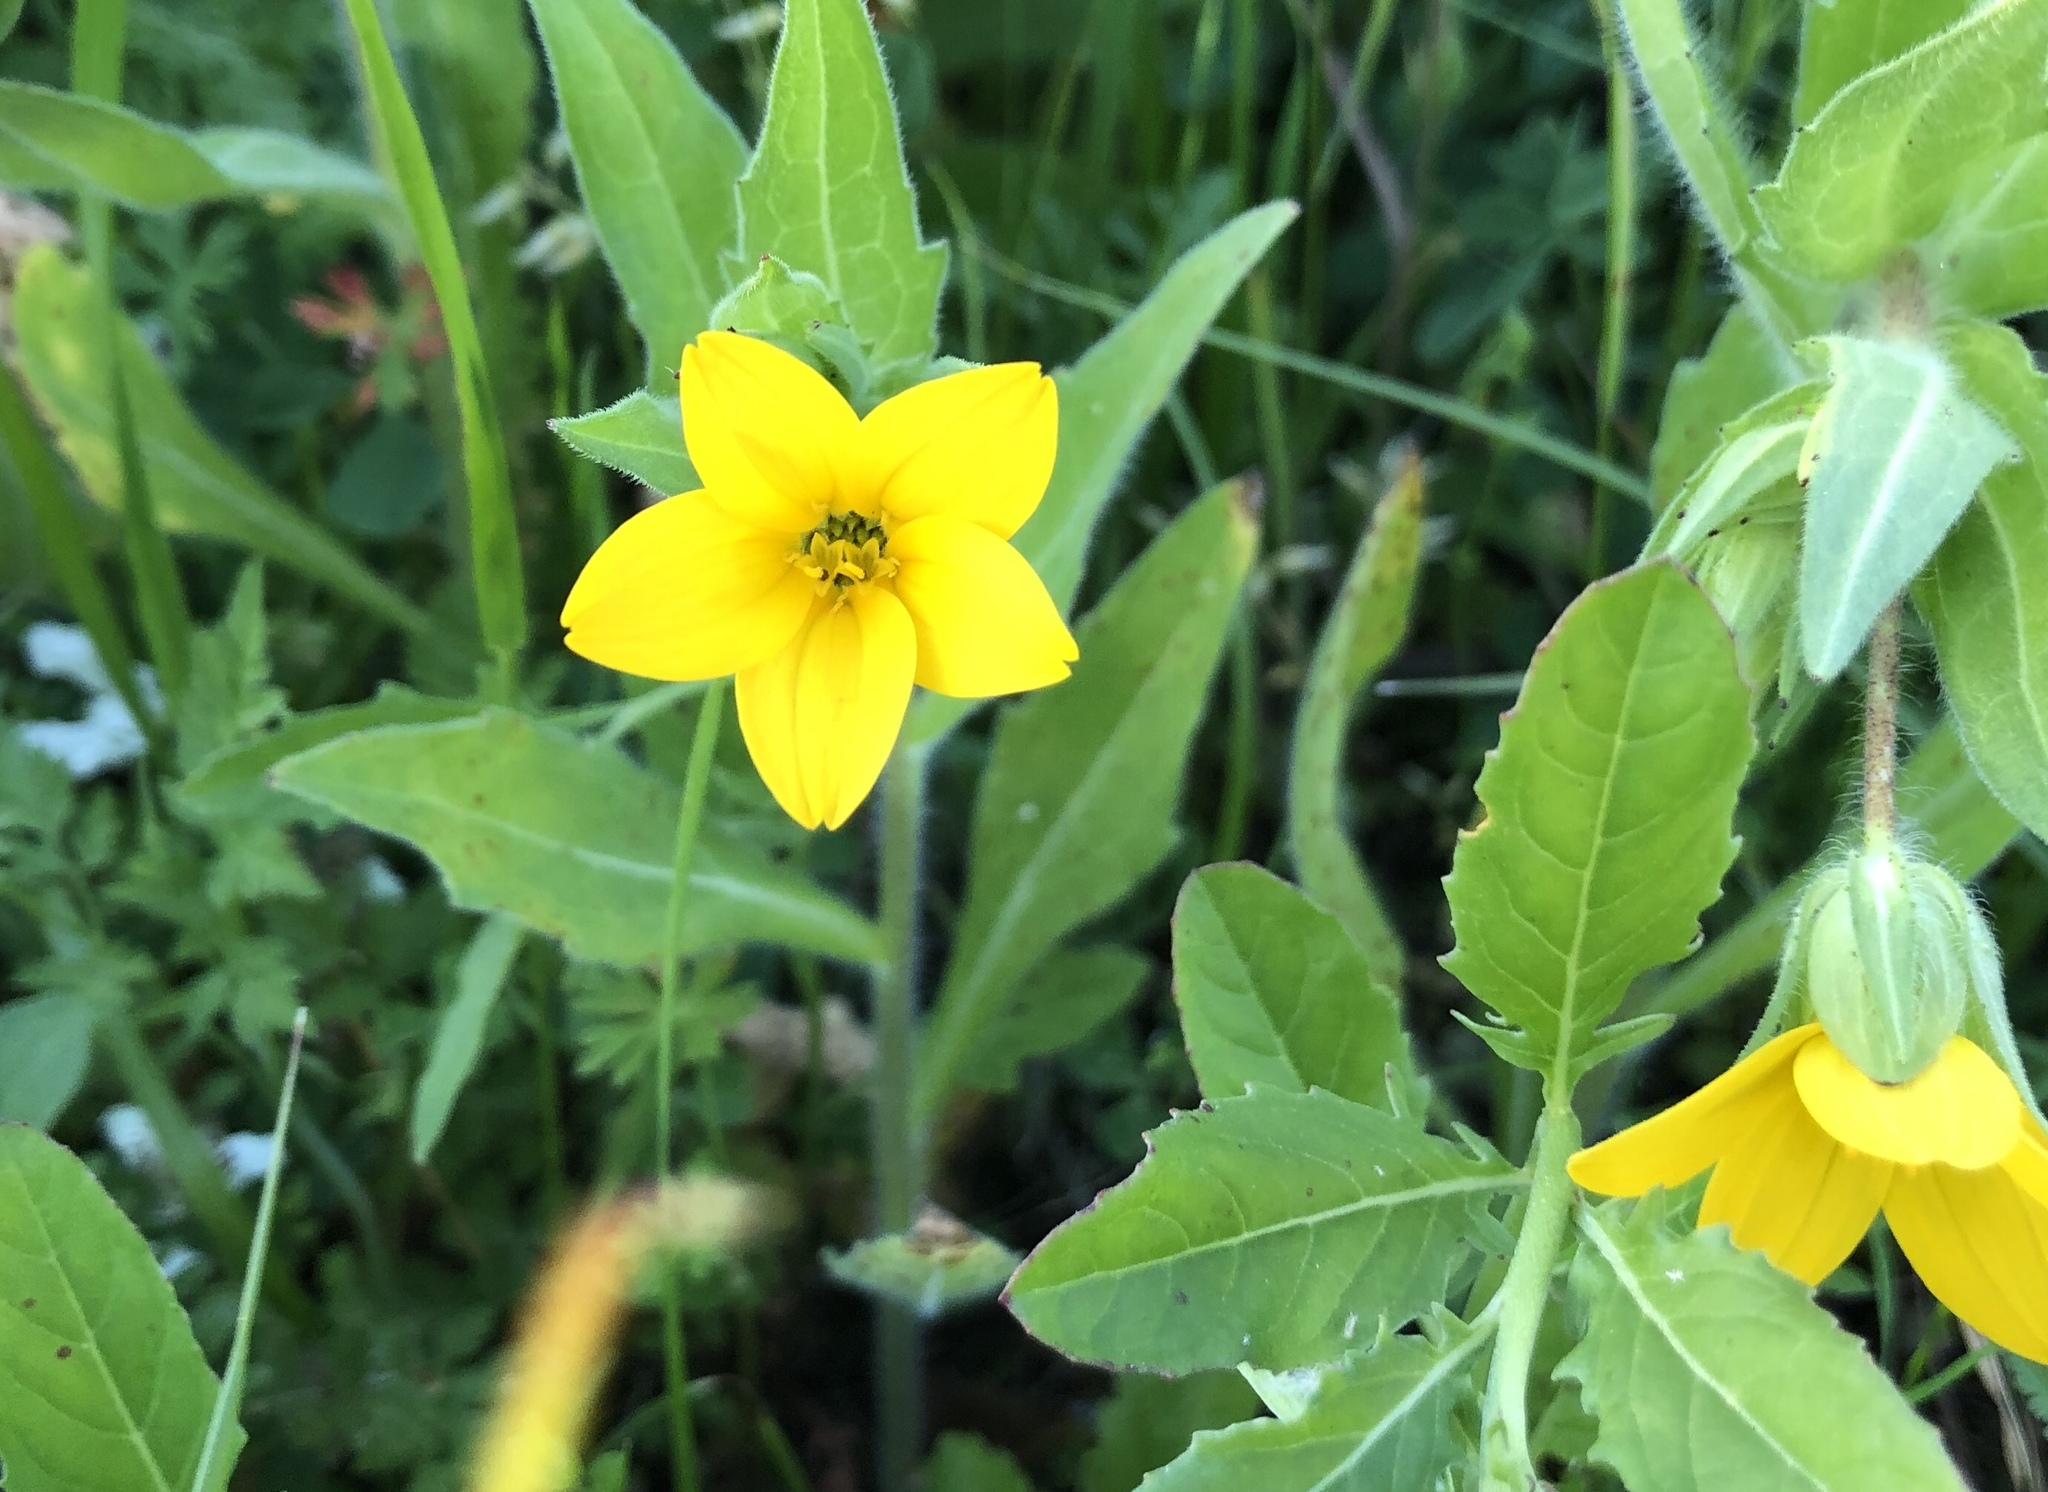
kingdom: Plantae
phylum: Tracheophyta
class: Magnoliopsida
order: Asterales
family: Asteraceae
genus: Lindheimera
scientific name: Lindheimera texana
